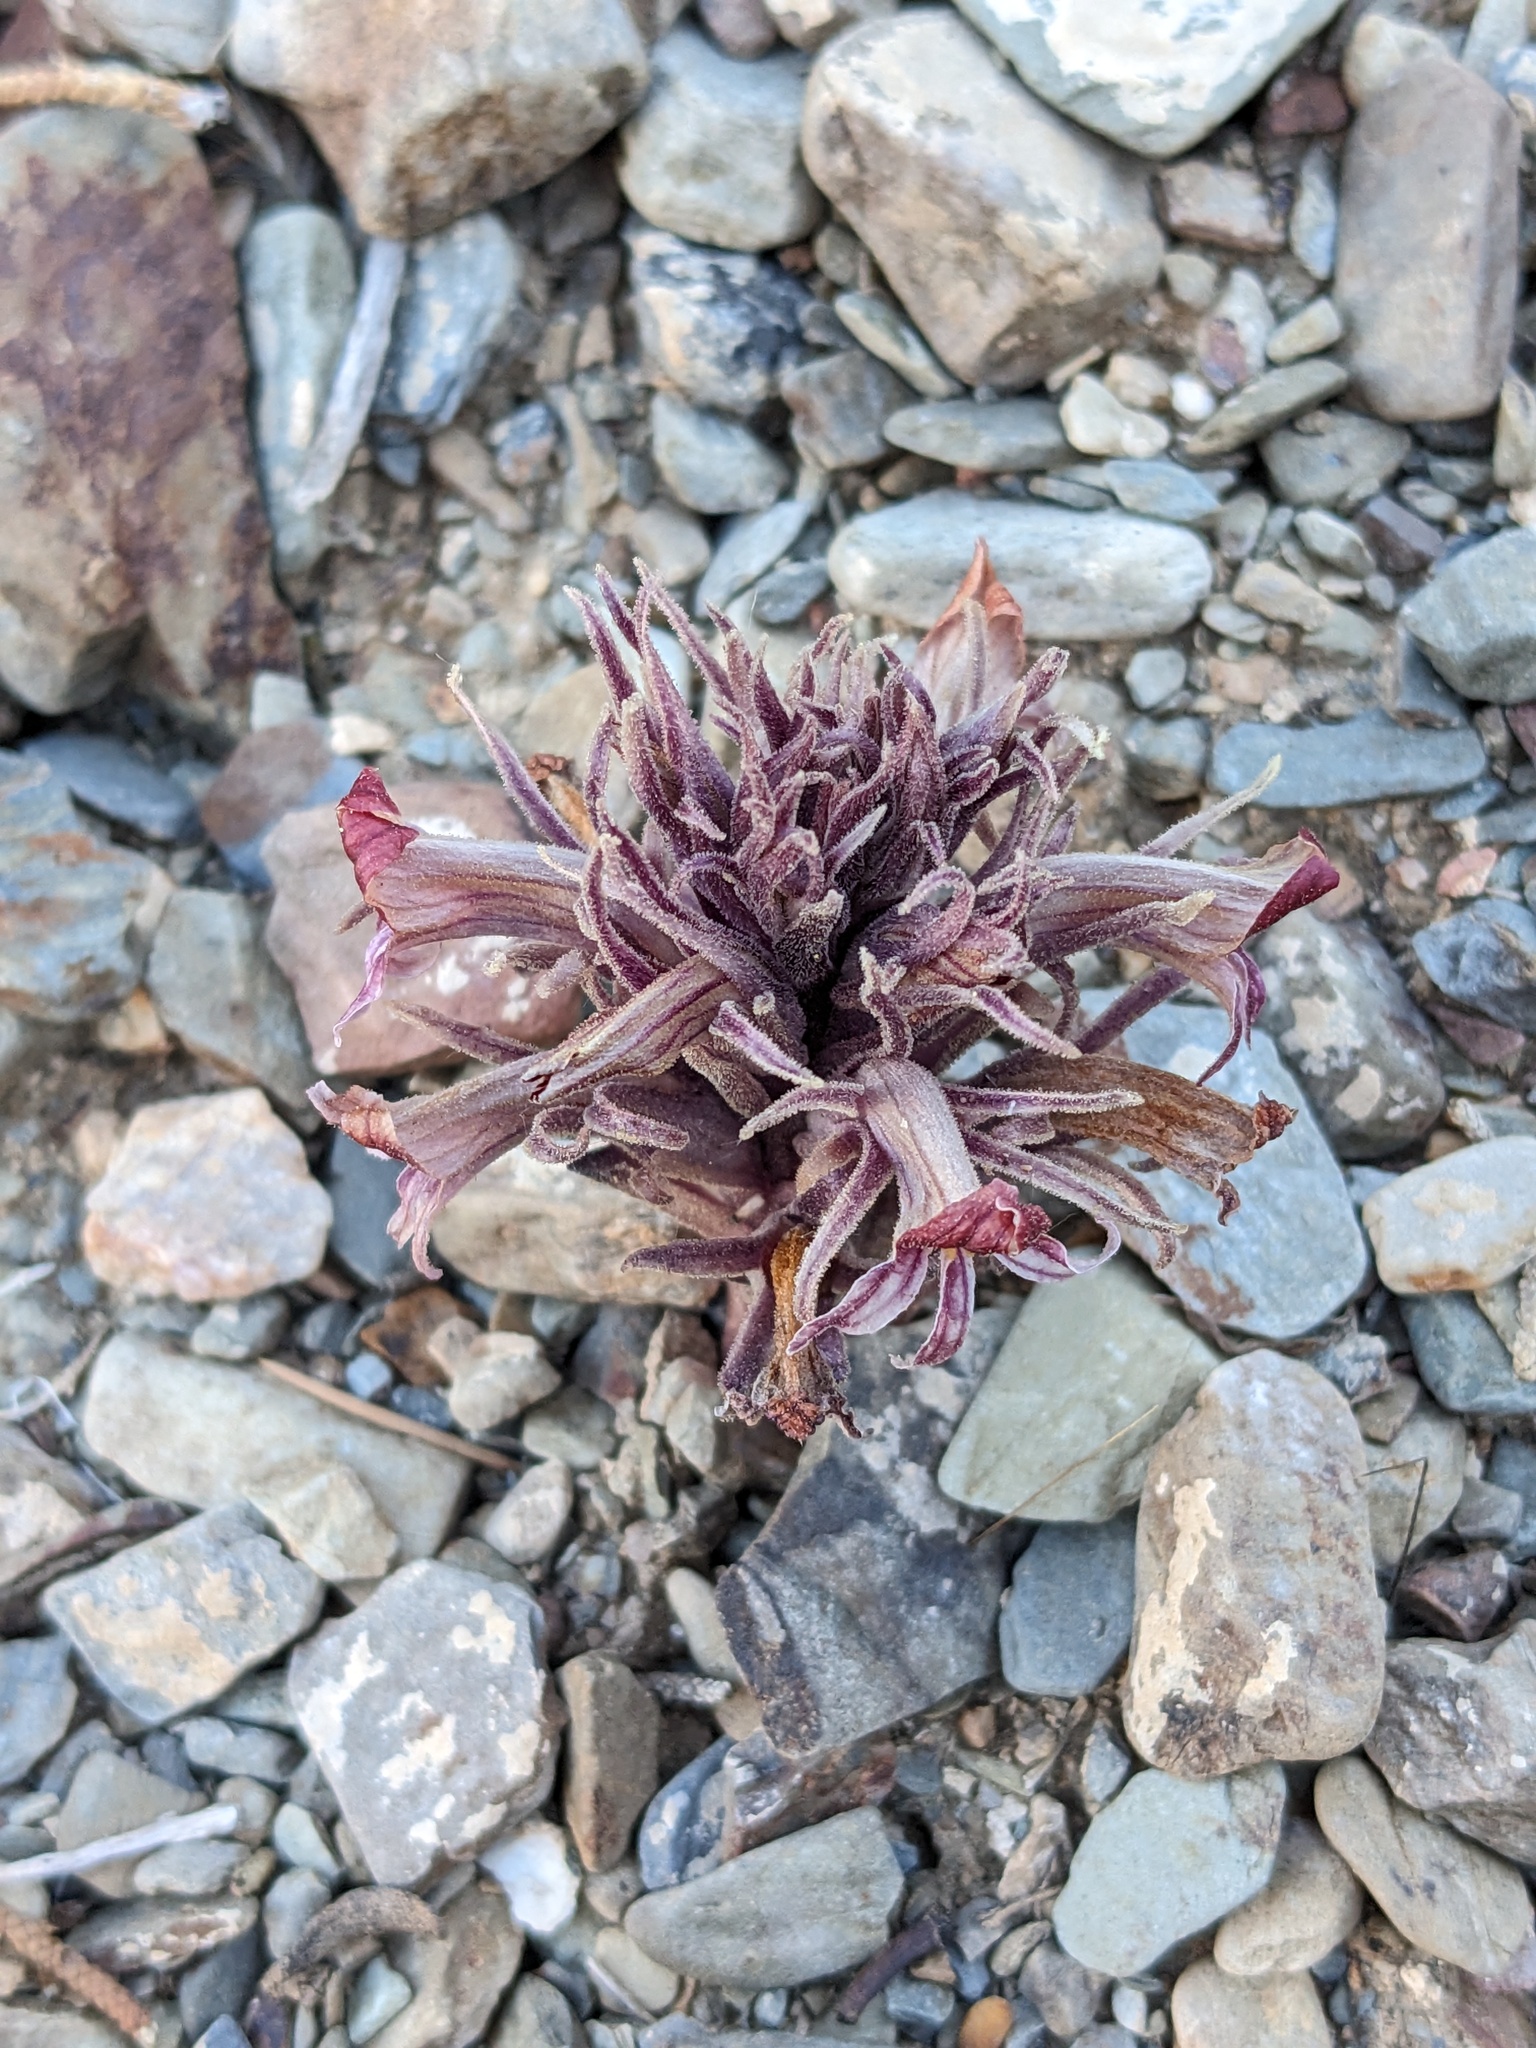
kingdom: Plantae
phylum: Tracheophyta
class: Magnoliopsida
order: Lamiales
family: Orobanchaceae
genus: Aphyllon
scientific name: Aphyllon corymbosum
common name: Flat-top broomrape
